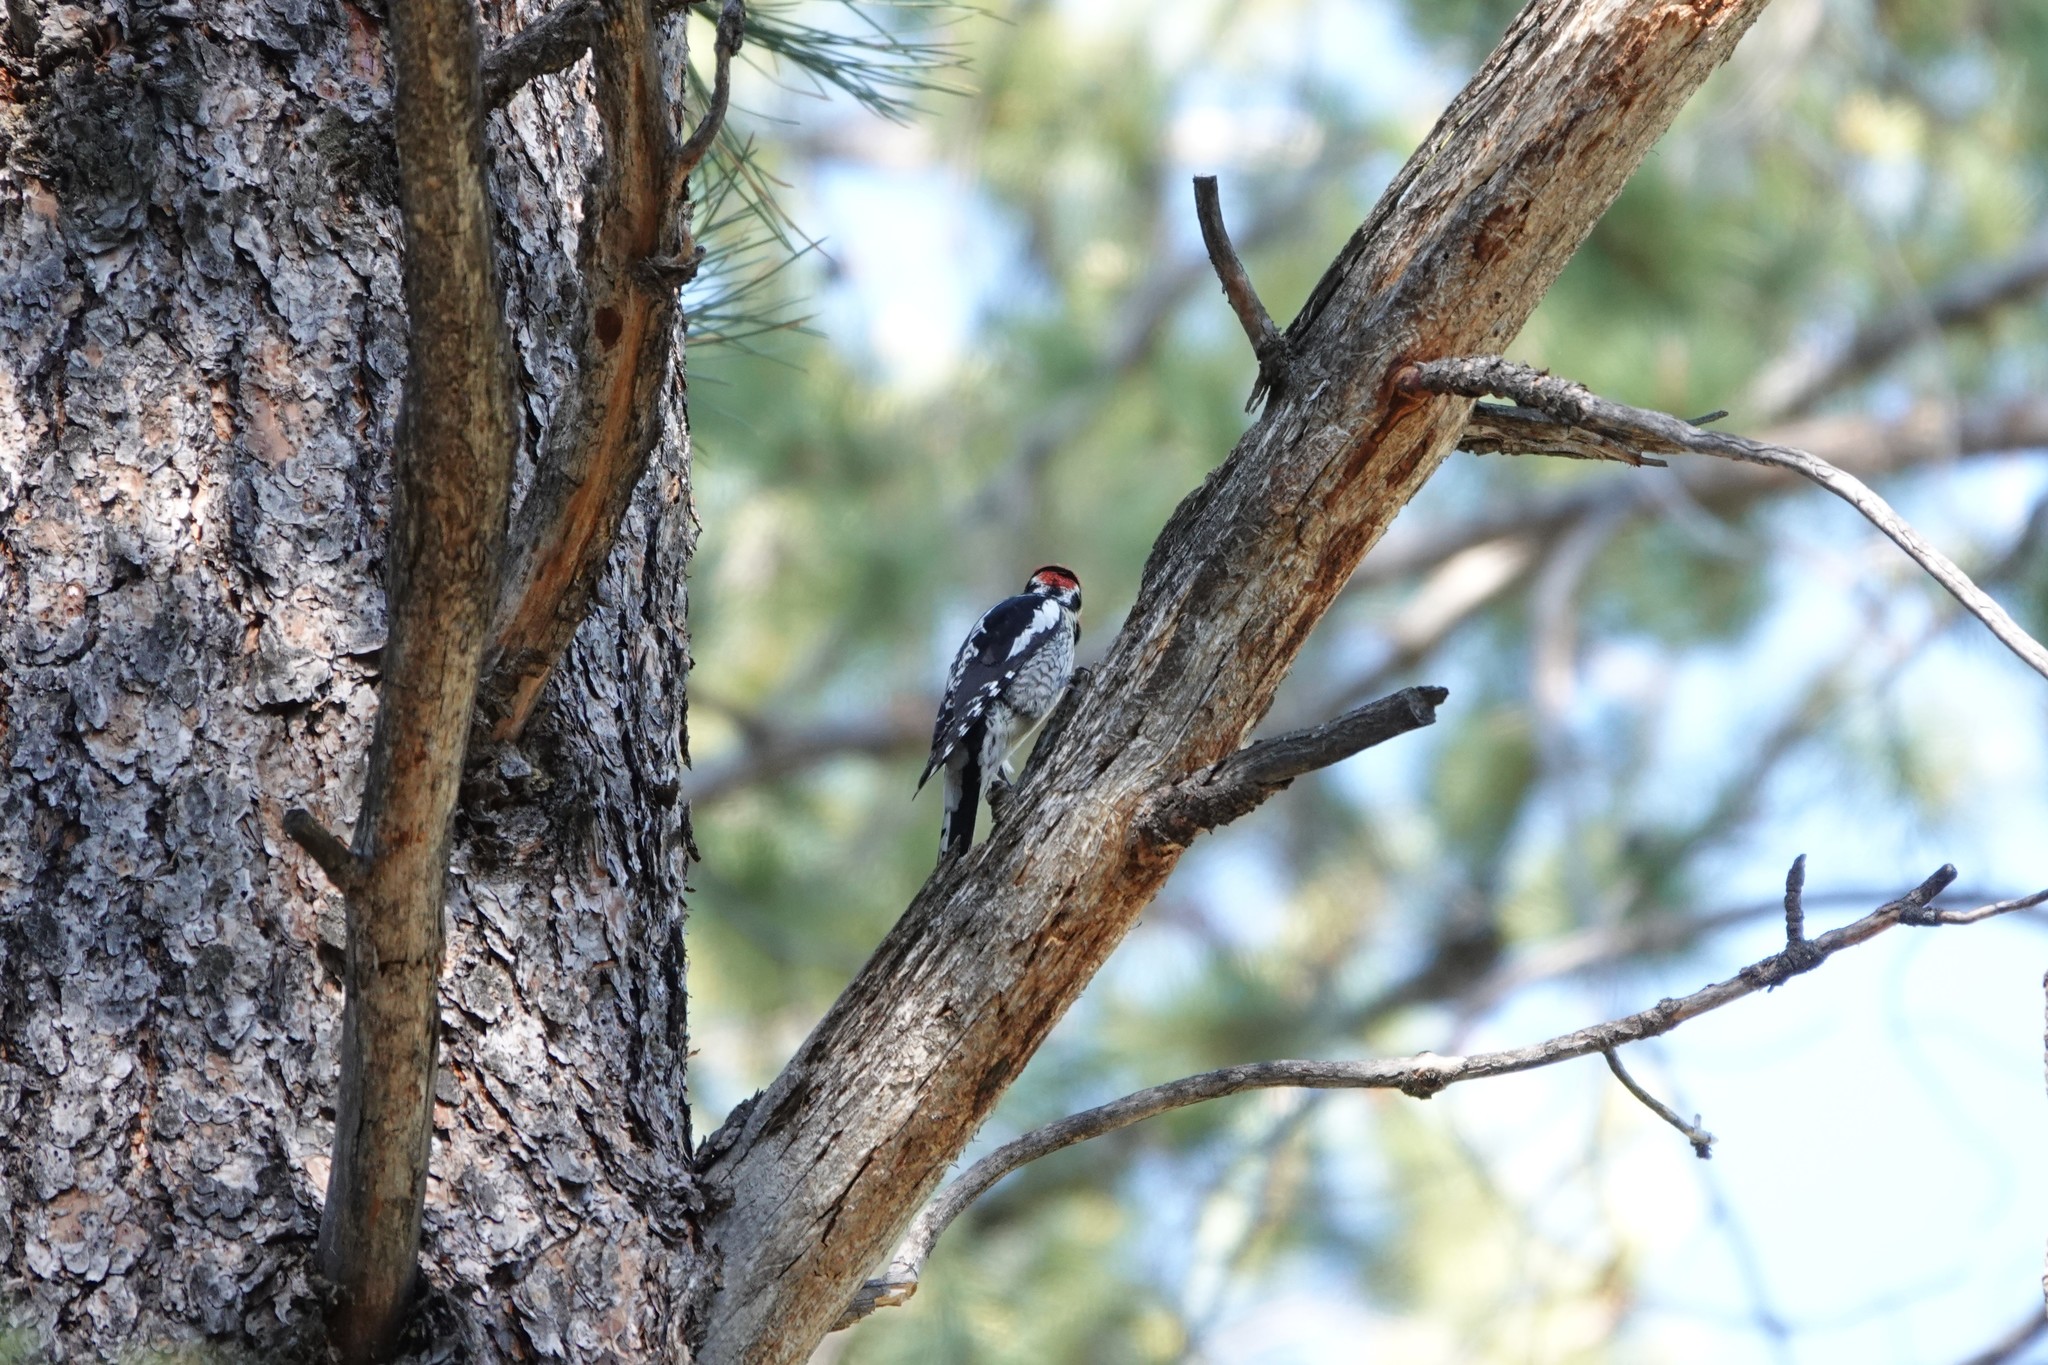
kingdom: Animalia
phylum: Chordata
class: Aves
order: Piciformes
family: Picidae
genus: Sphyrapicus
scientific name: Sphyrapicus nuchalis
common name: Red-naped sapsucker
